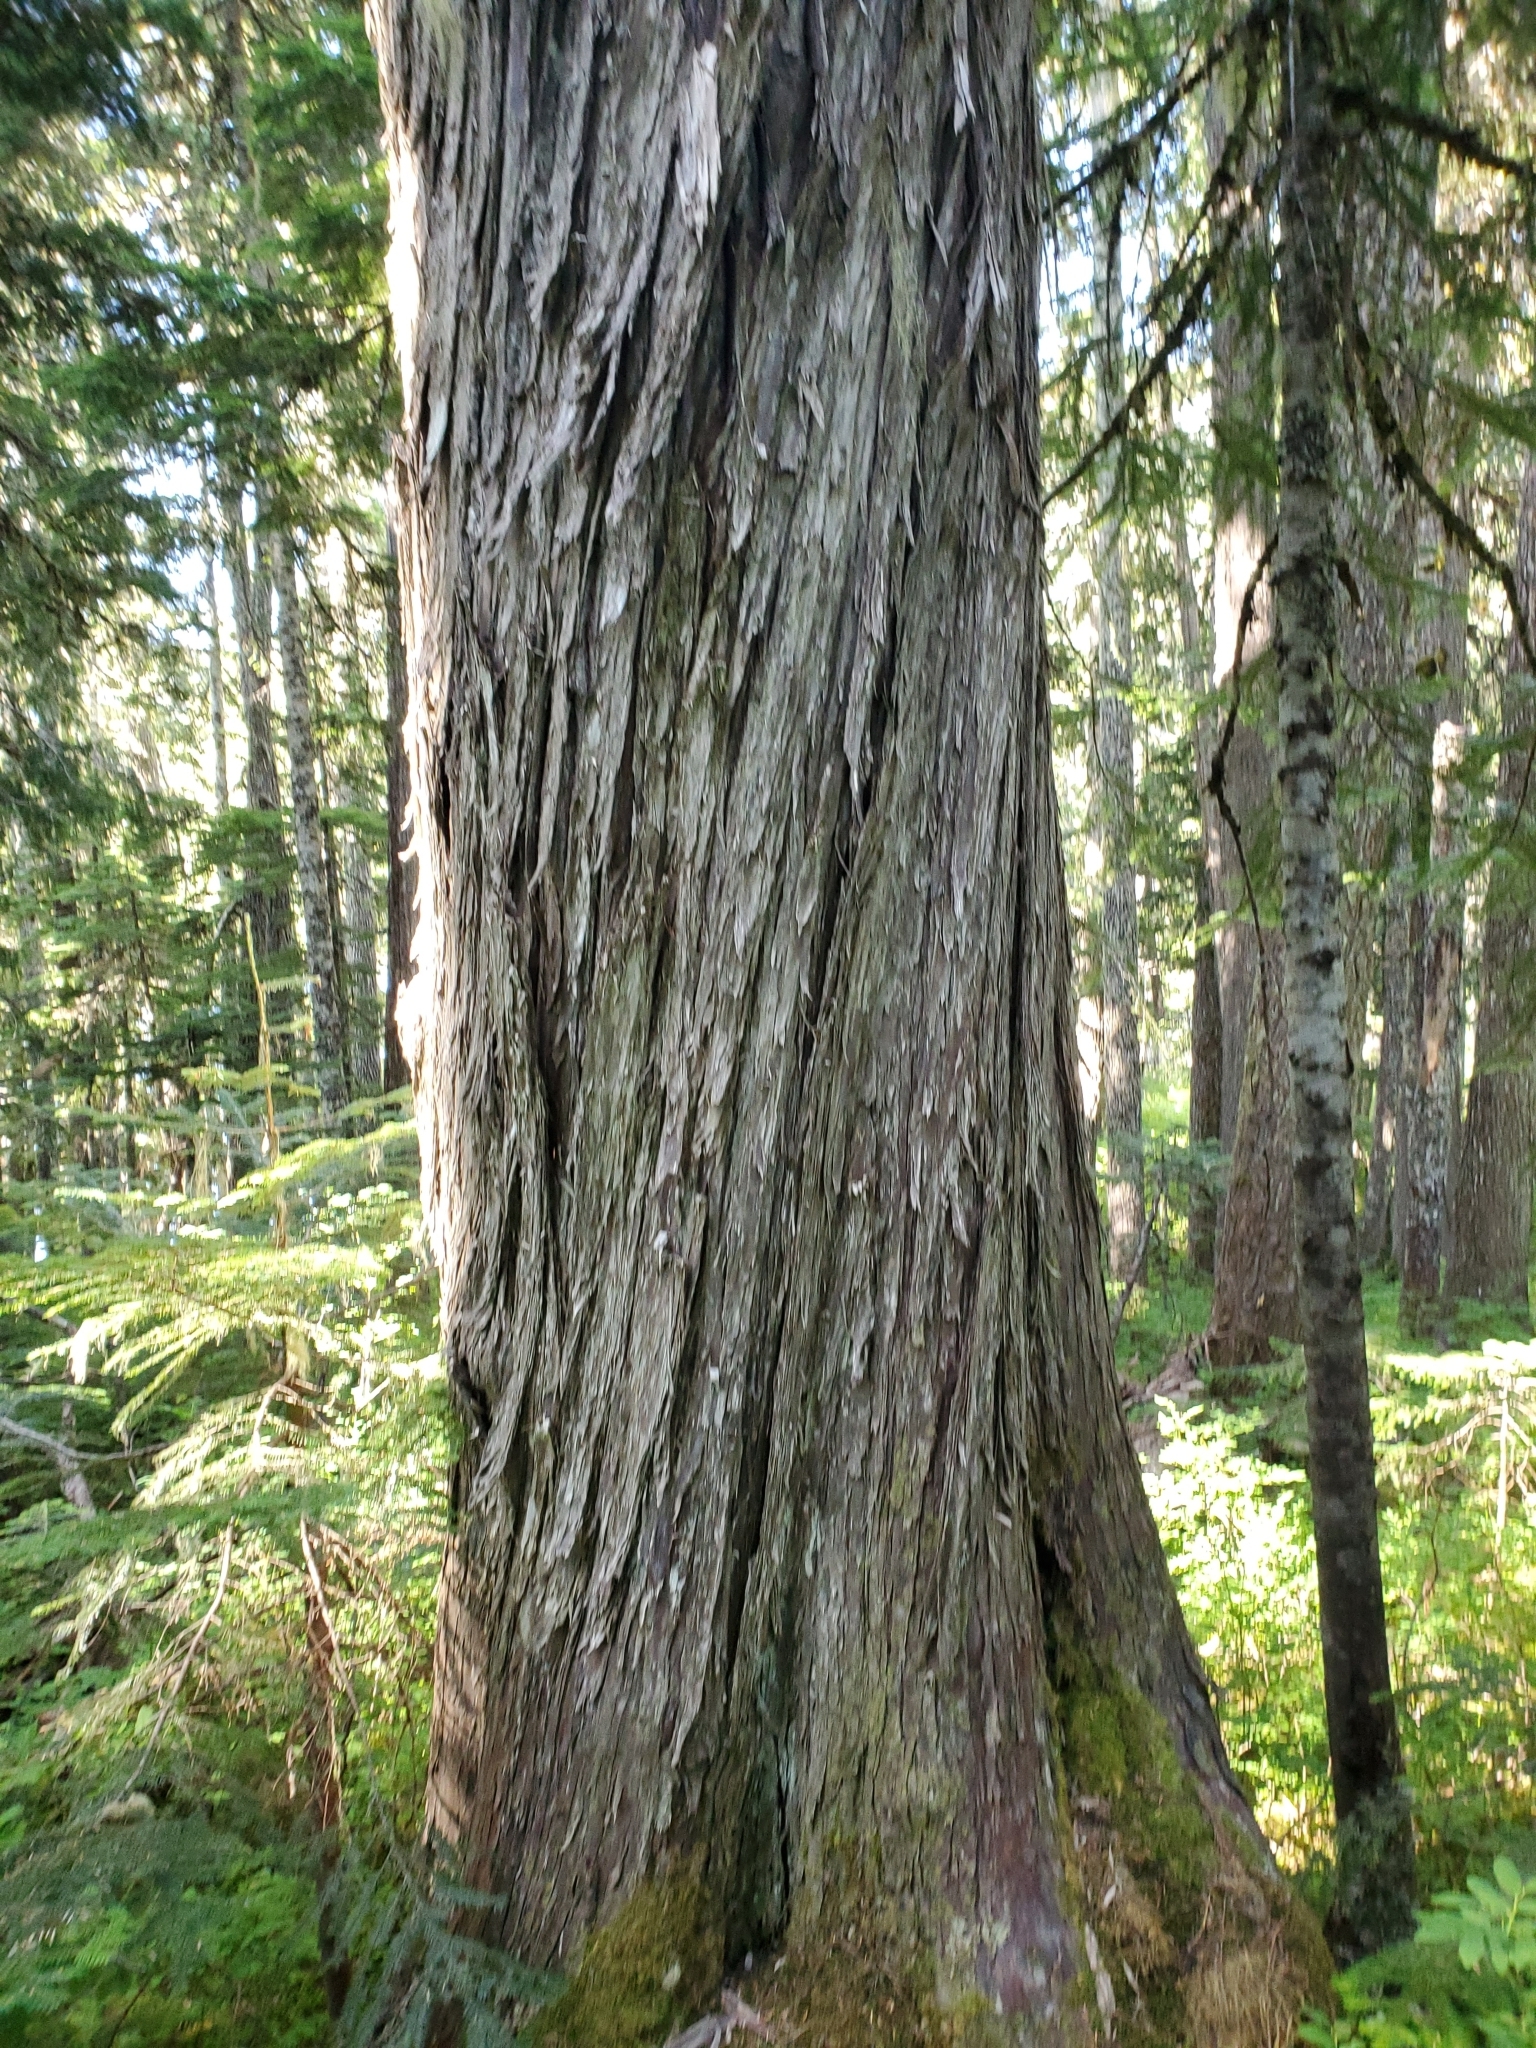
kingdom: Plantae
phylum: Tracheophyta
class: Pinopsida
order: Pinales
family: Cupressaceae
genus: Xanthocyparis
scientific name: Xanthocyparis nootkatensis
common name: Nootka cypress
